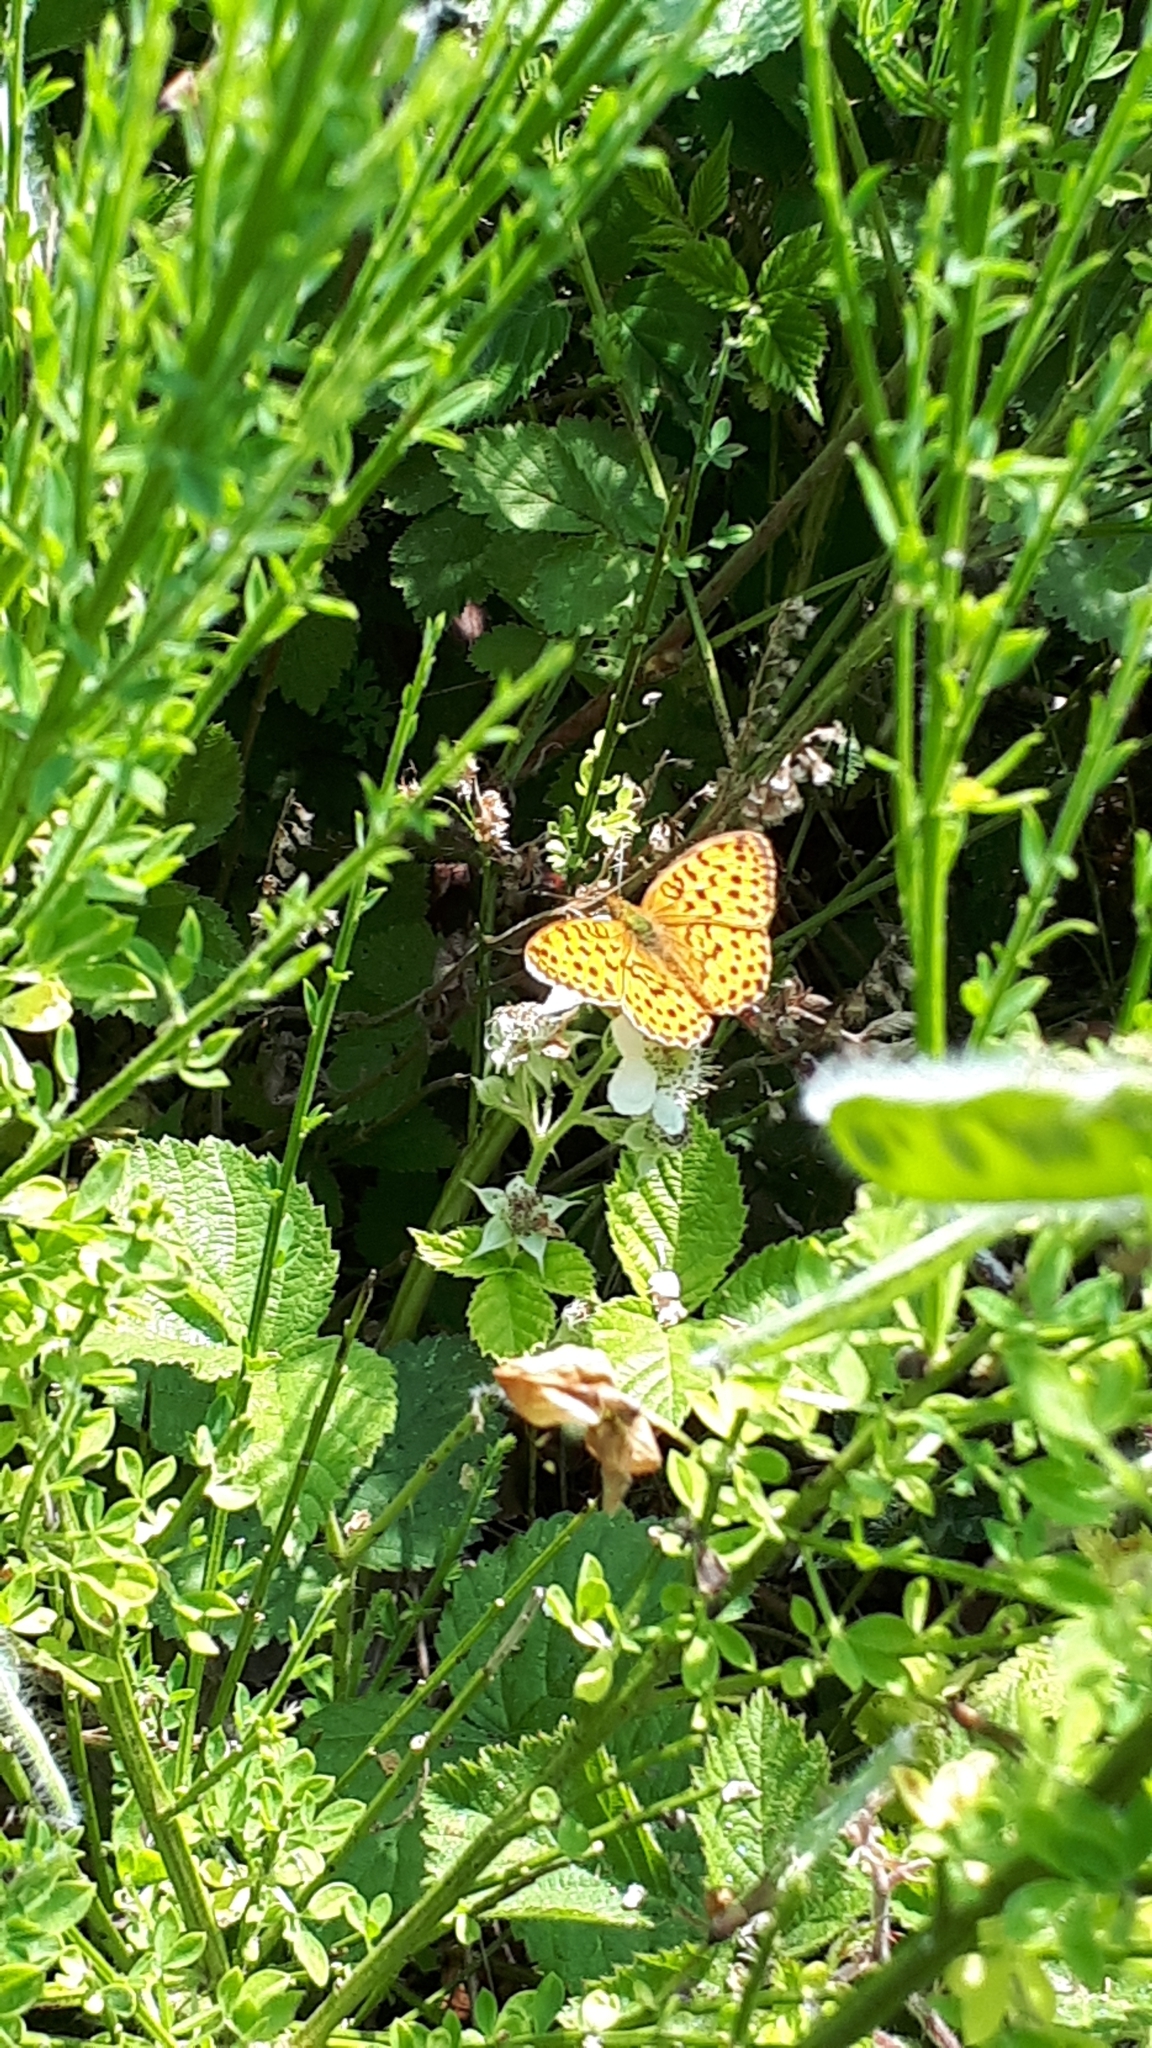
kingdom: Animalia
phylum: Arthropoda
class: Insecta
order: Lepidoptera
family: Nymphalidae
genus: Brenthis
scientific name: Brenthis daphne
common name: Marbled fritillary
